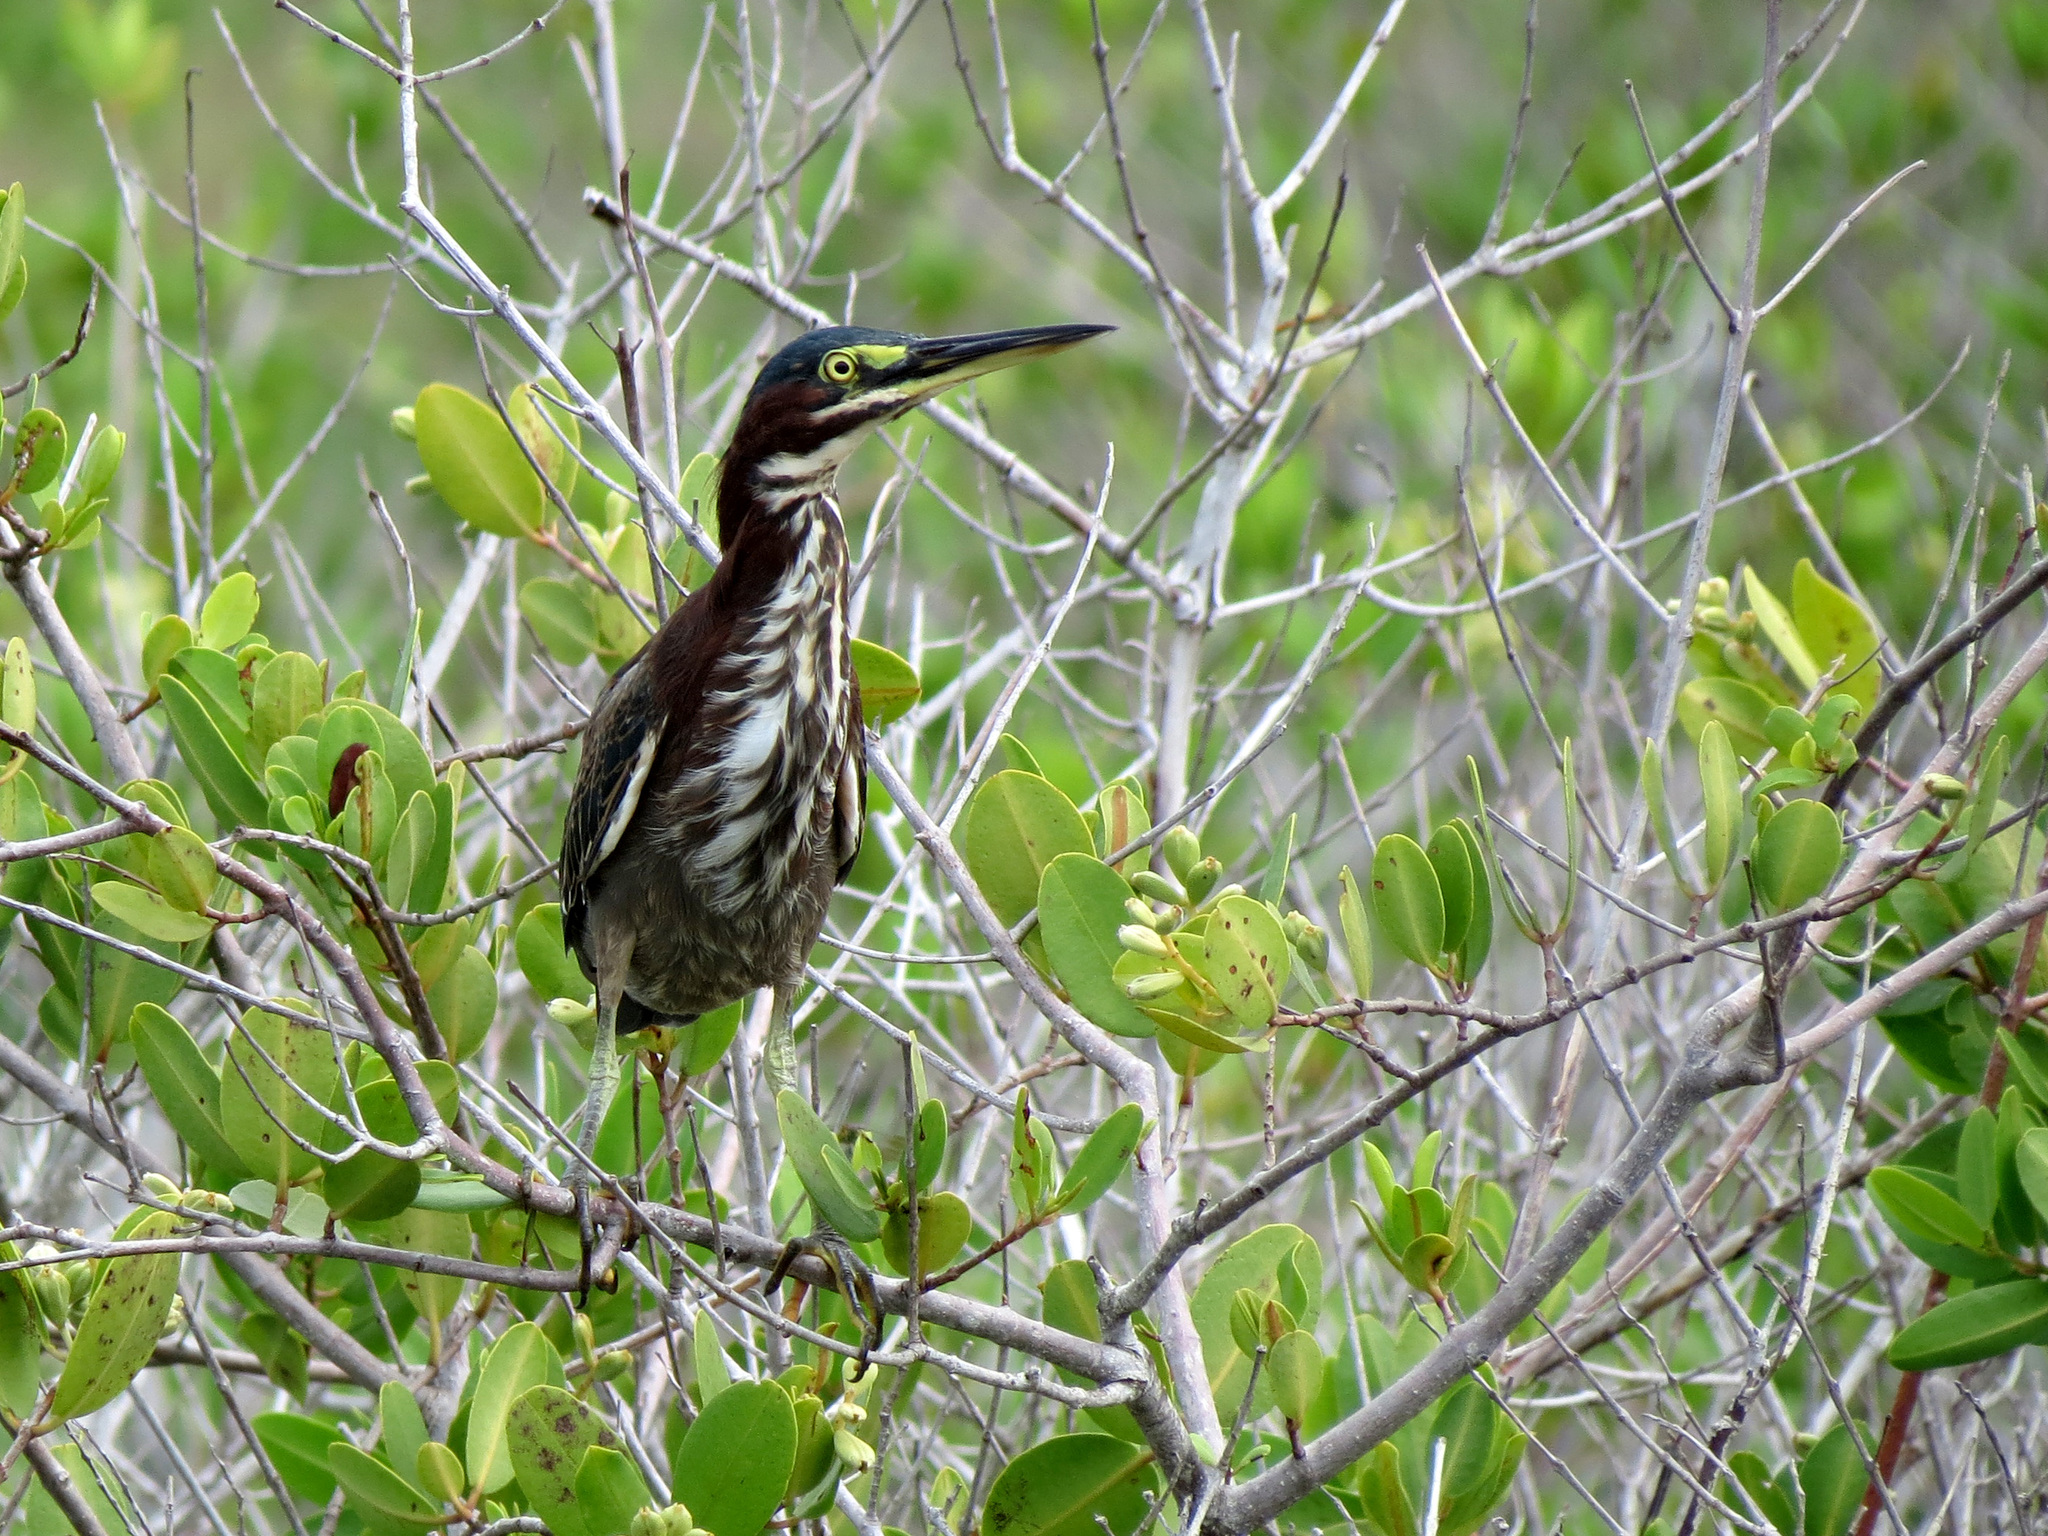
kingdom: Animalia
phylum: Chordata
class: Aves
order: Pelecaniformes
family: Ardeidae
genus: Butorides
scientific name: Butorides virescens
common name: Green heron
